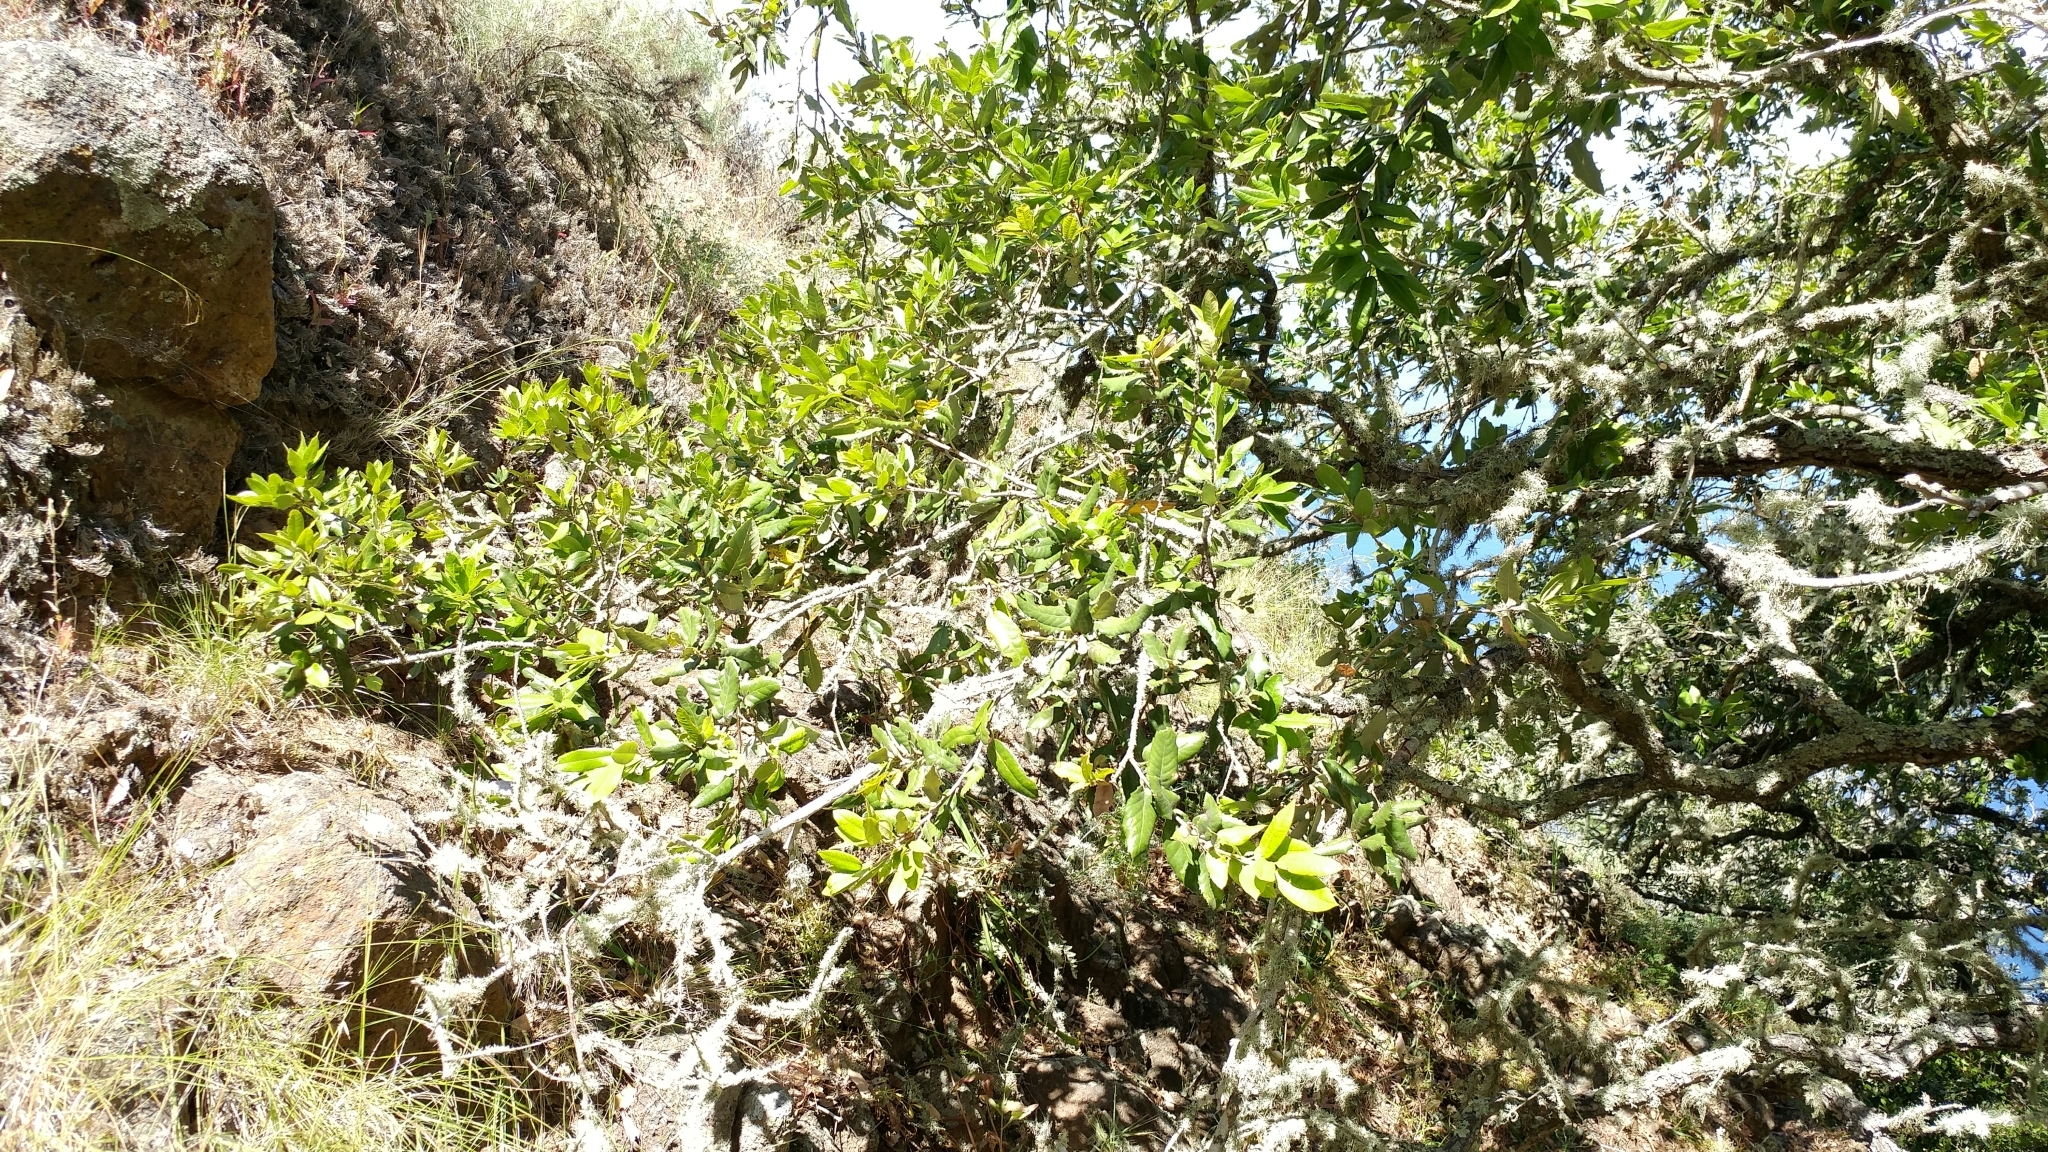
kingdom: Plantae
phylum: Tracheophyta
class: Magnoliopsida
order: Fagales
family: Fagaceae
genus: Quercus
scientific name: Quercus tomentella
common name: Island oak
